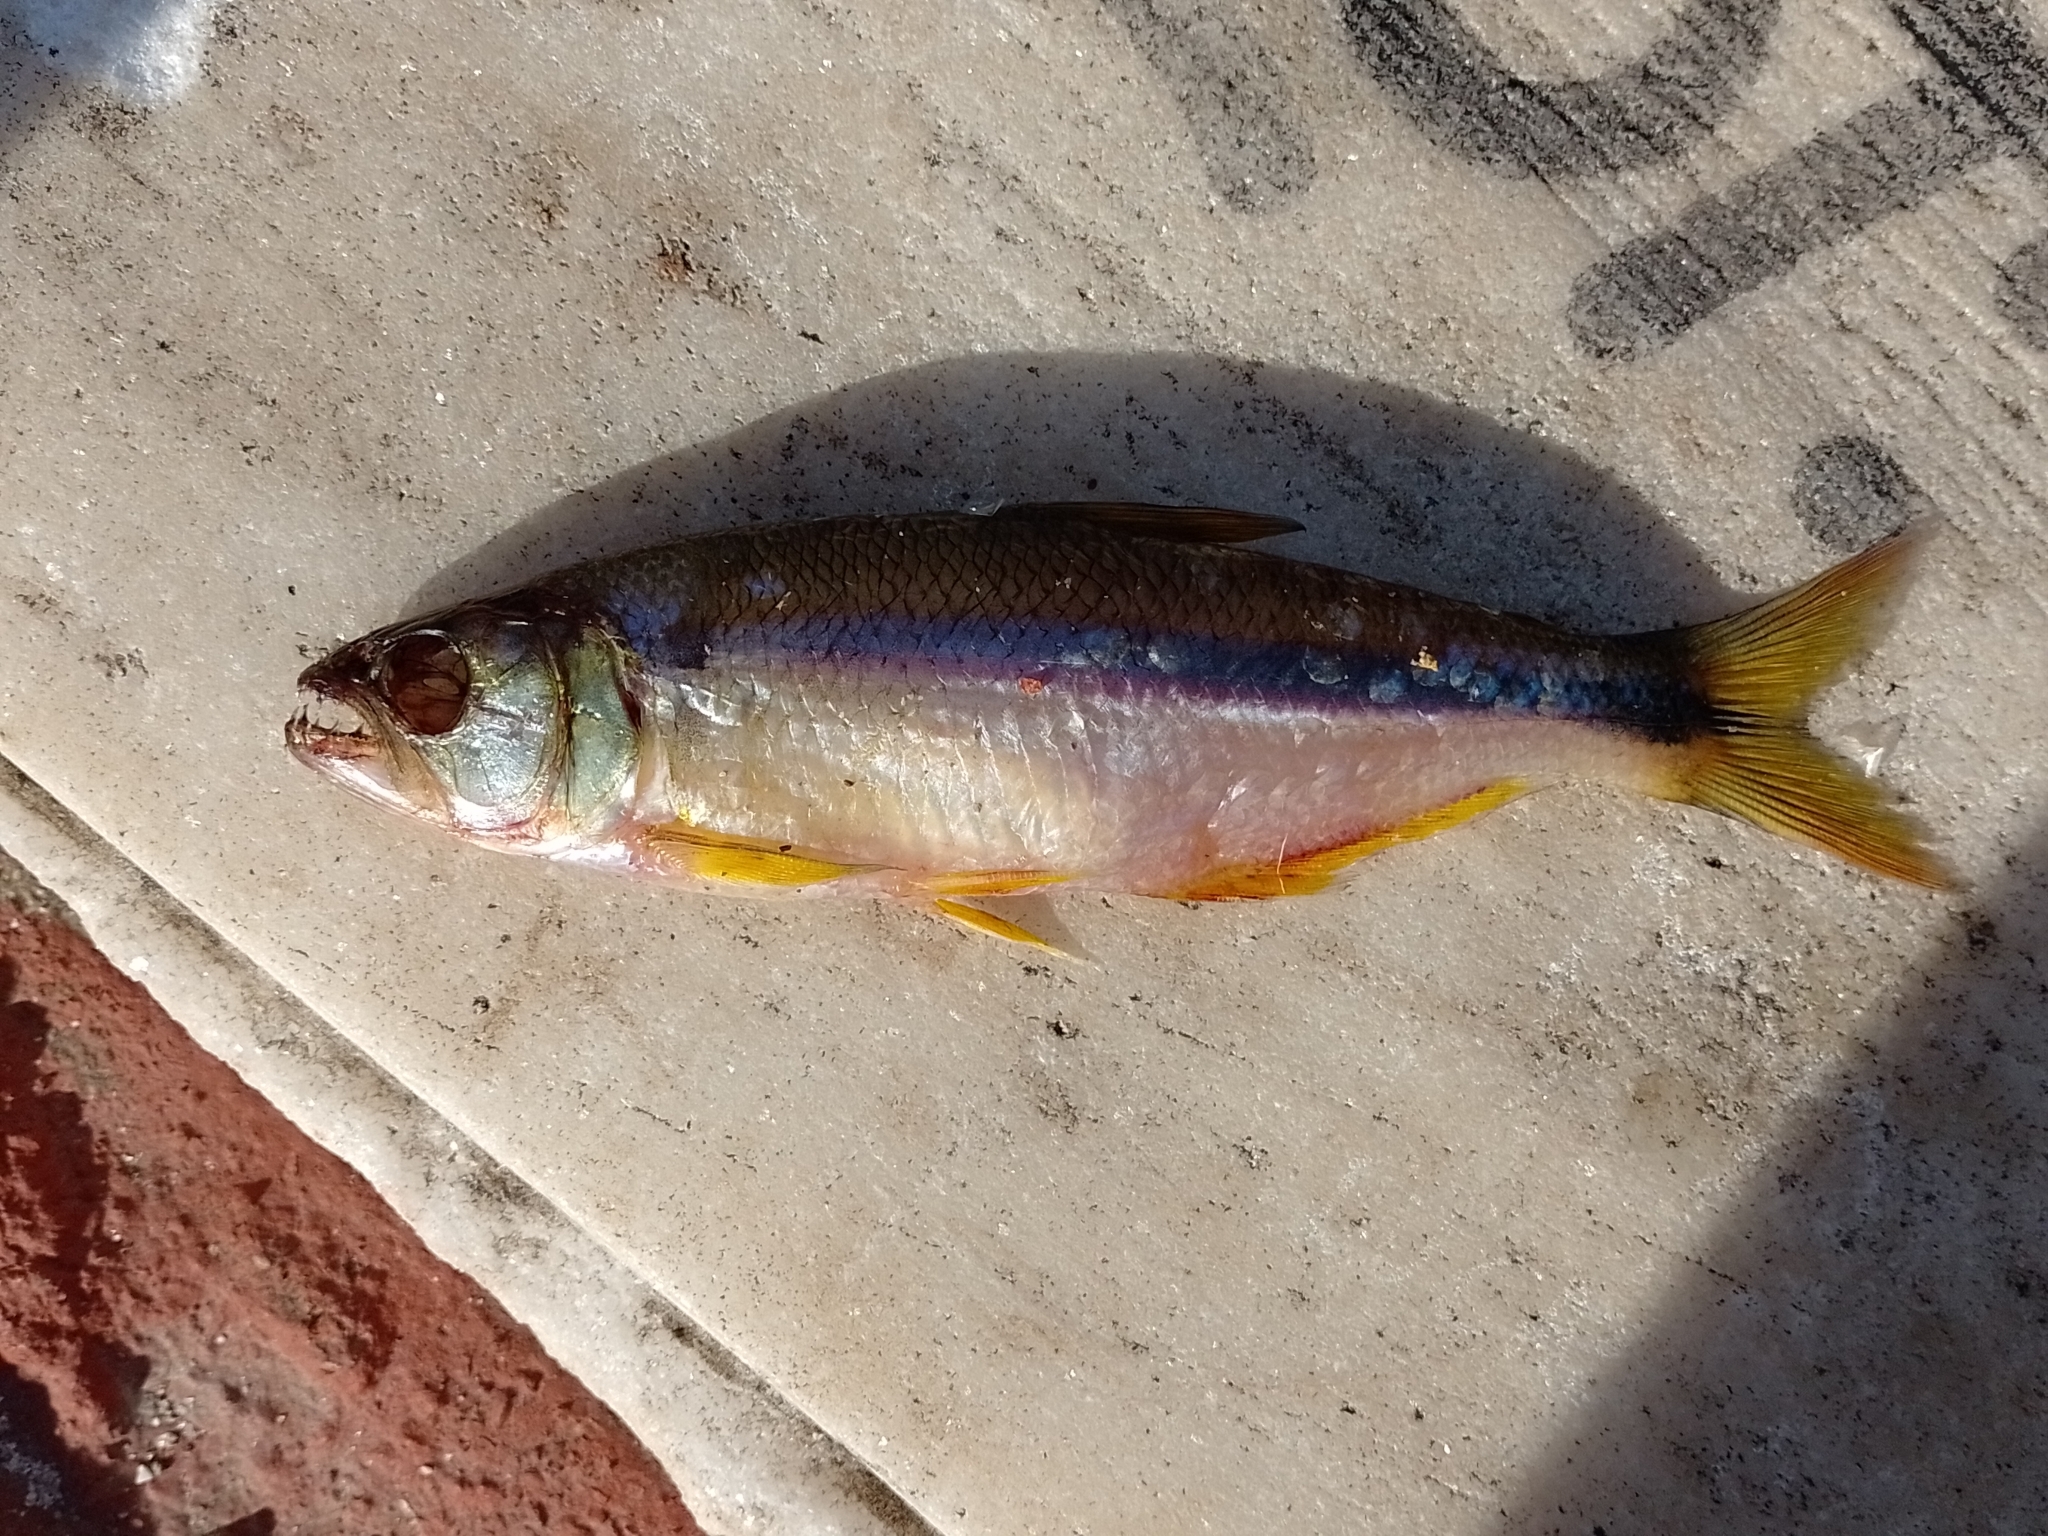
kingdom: Animalia
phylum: Chordata
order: Characiformes
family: Characidae
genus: Oligosarcus
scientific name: Oligosarcus jenynsii
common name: Pike characin
